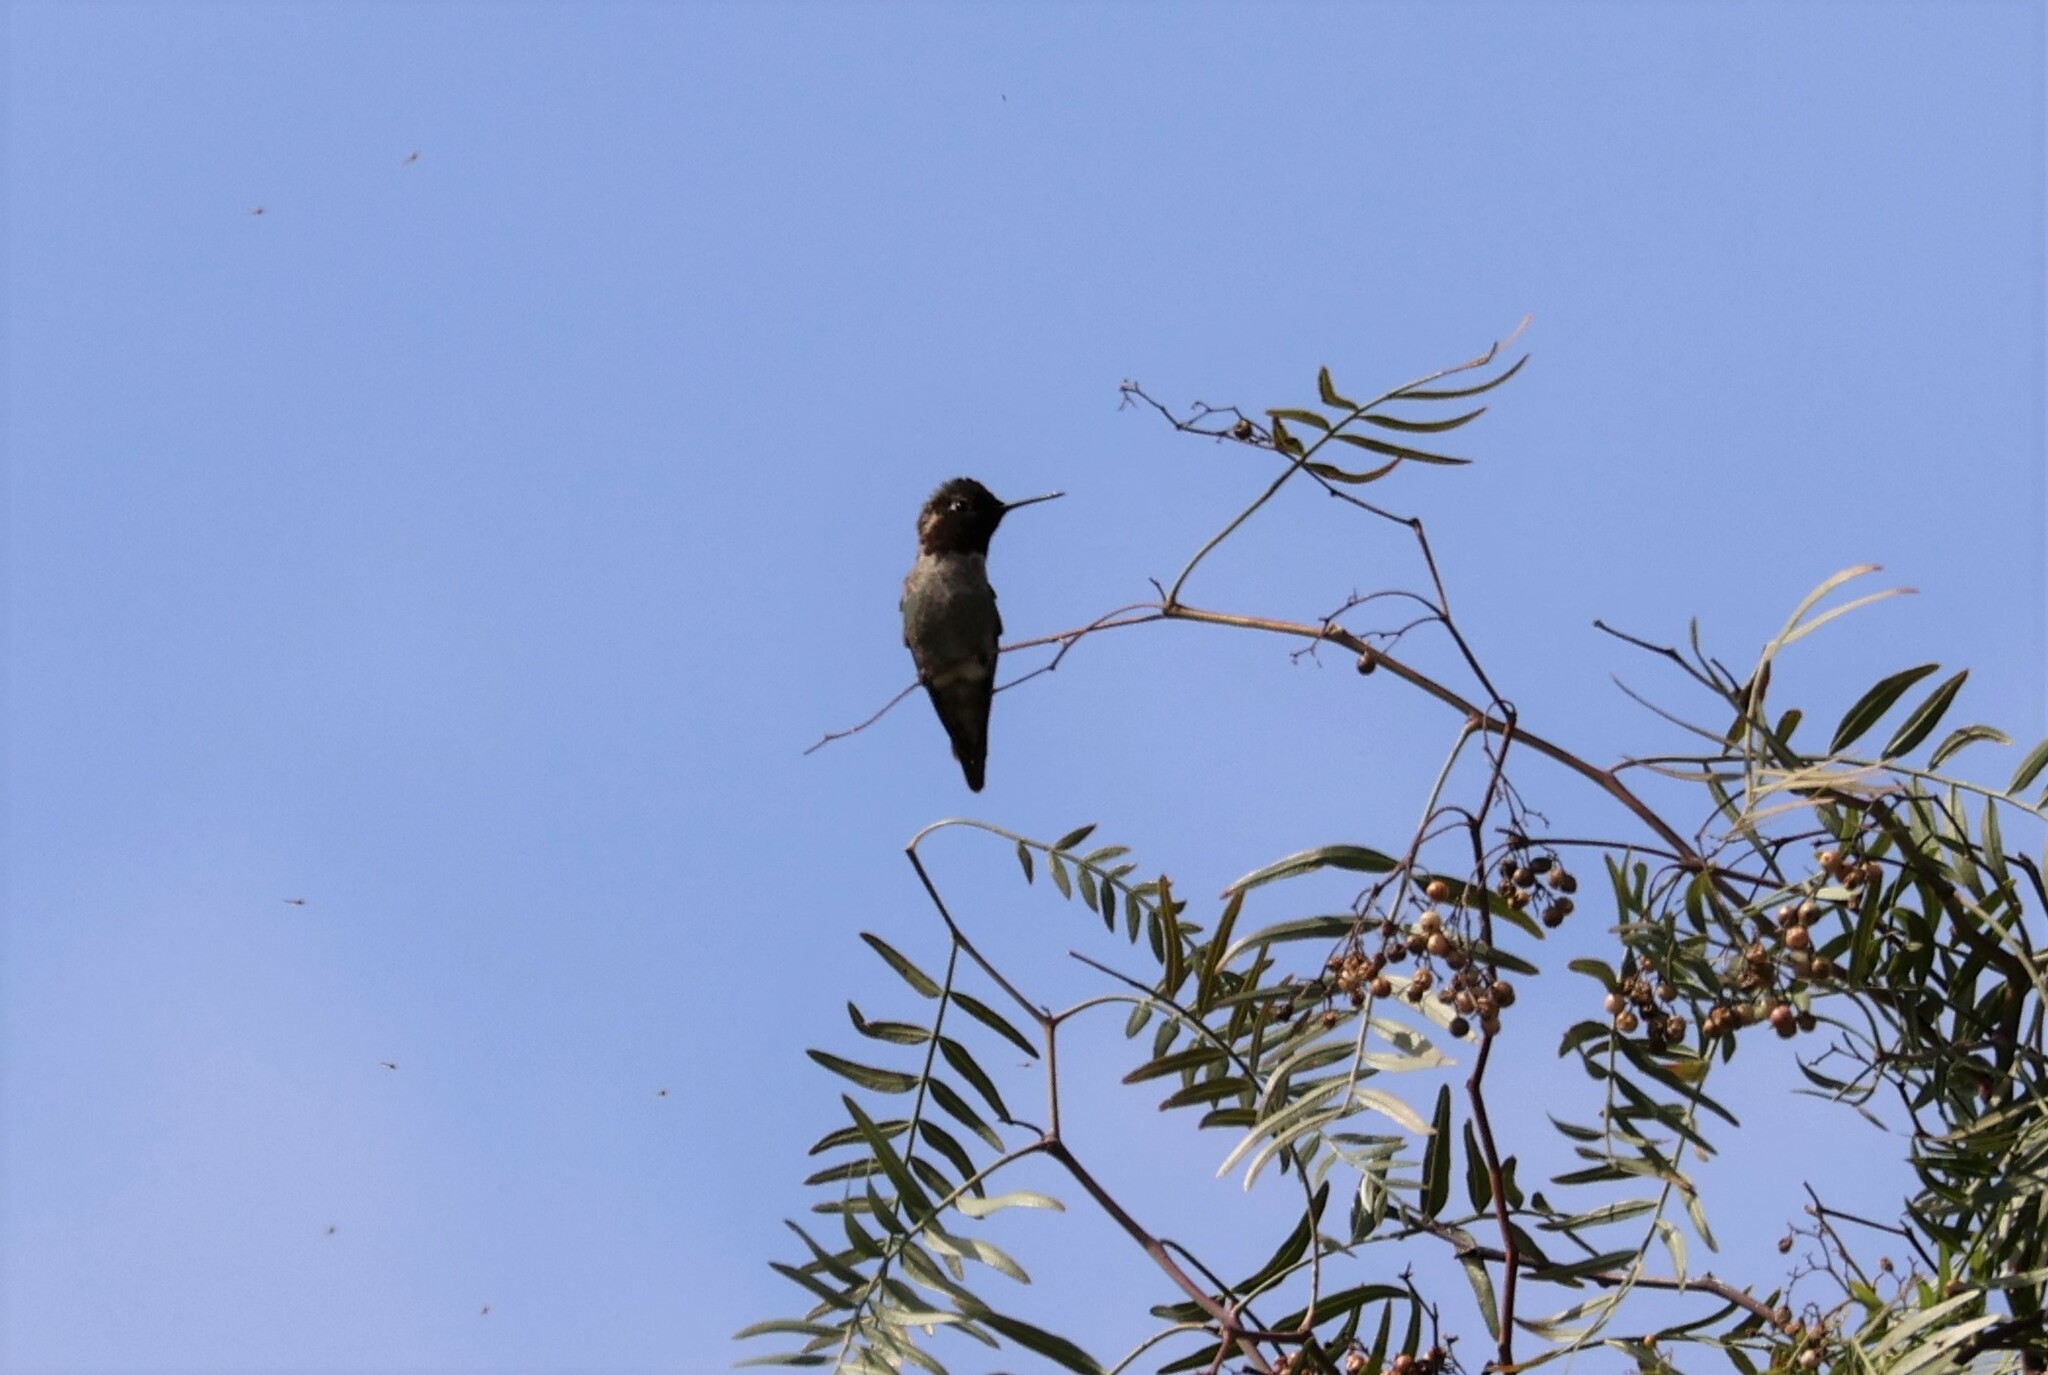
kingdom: Animalia
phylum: Chordata
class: Aves
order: Apodiformes
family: Trochilidae
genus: Calypte
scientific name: Calypte anna
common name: Anna's hummingbird
